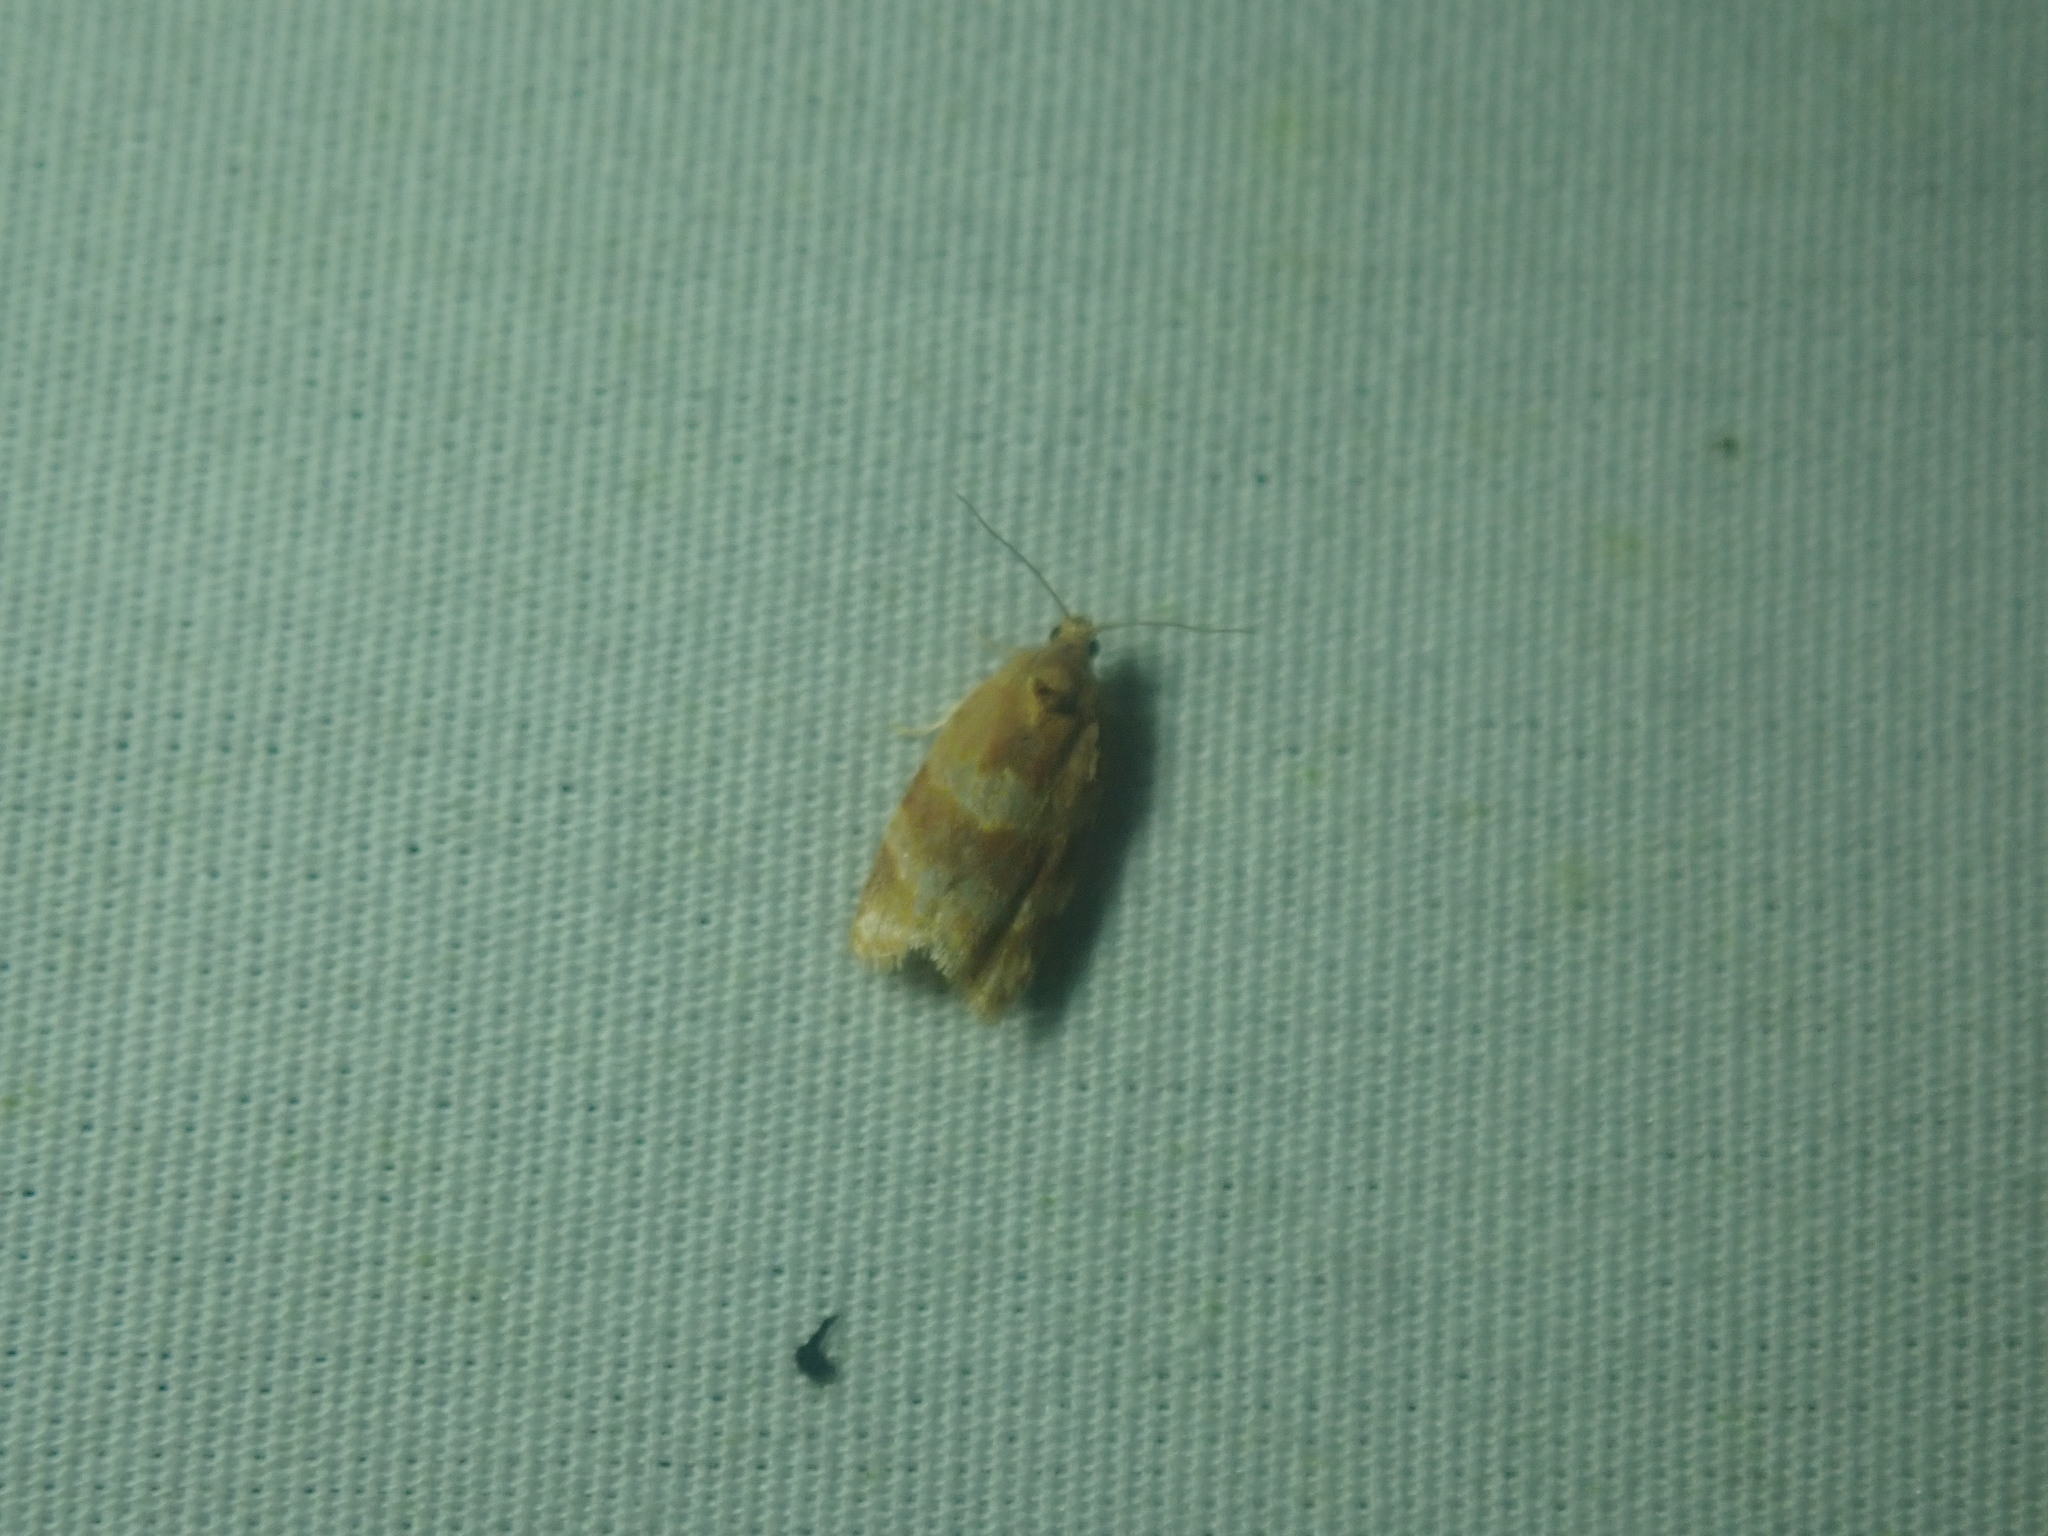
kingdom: Animalia
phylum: Arthropoda
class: Insecta
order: Lepidoptera
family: Tortricidae
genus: Argyrotaenia
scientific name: Argyrotaenia pinatubana
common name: Pine tube moth
